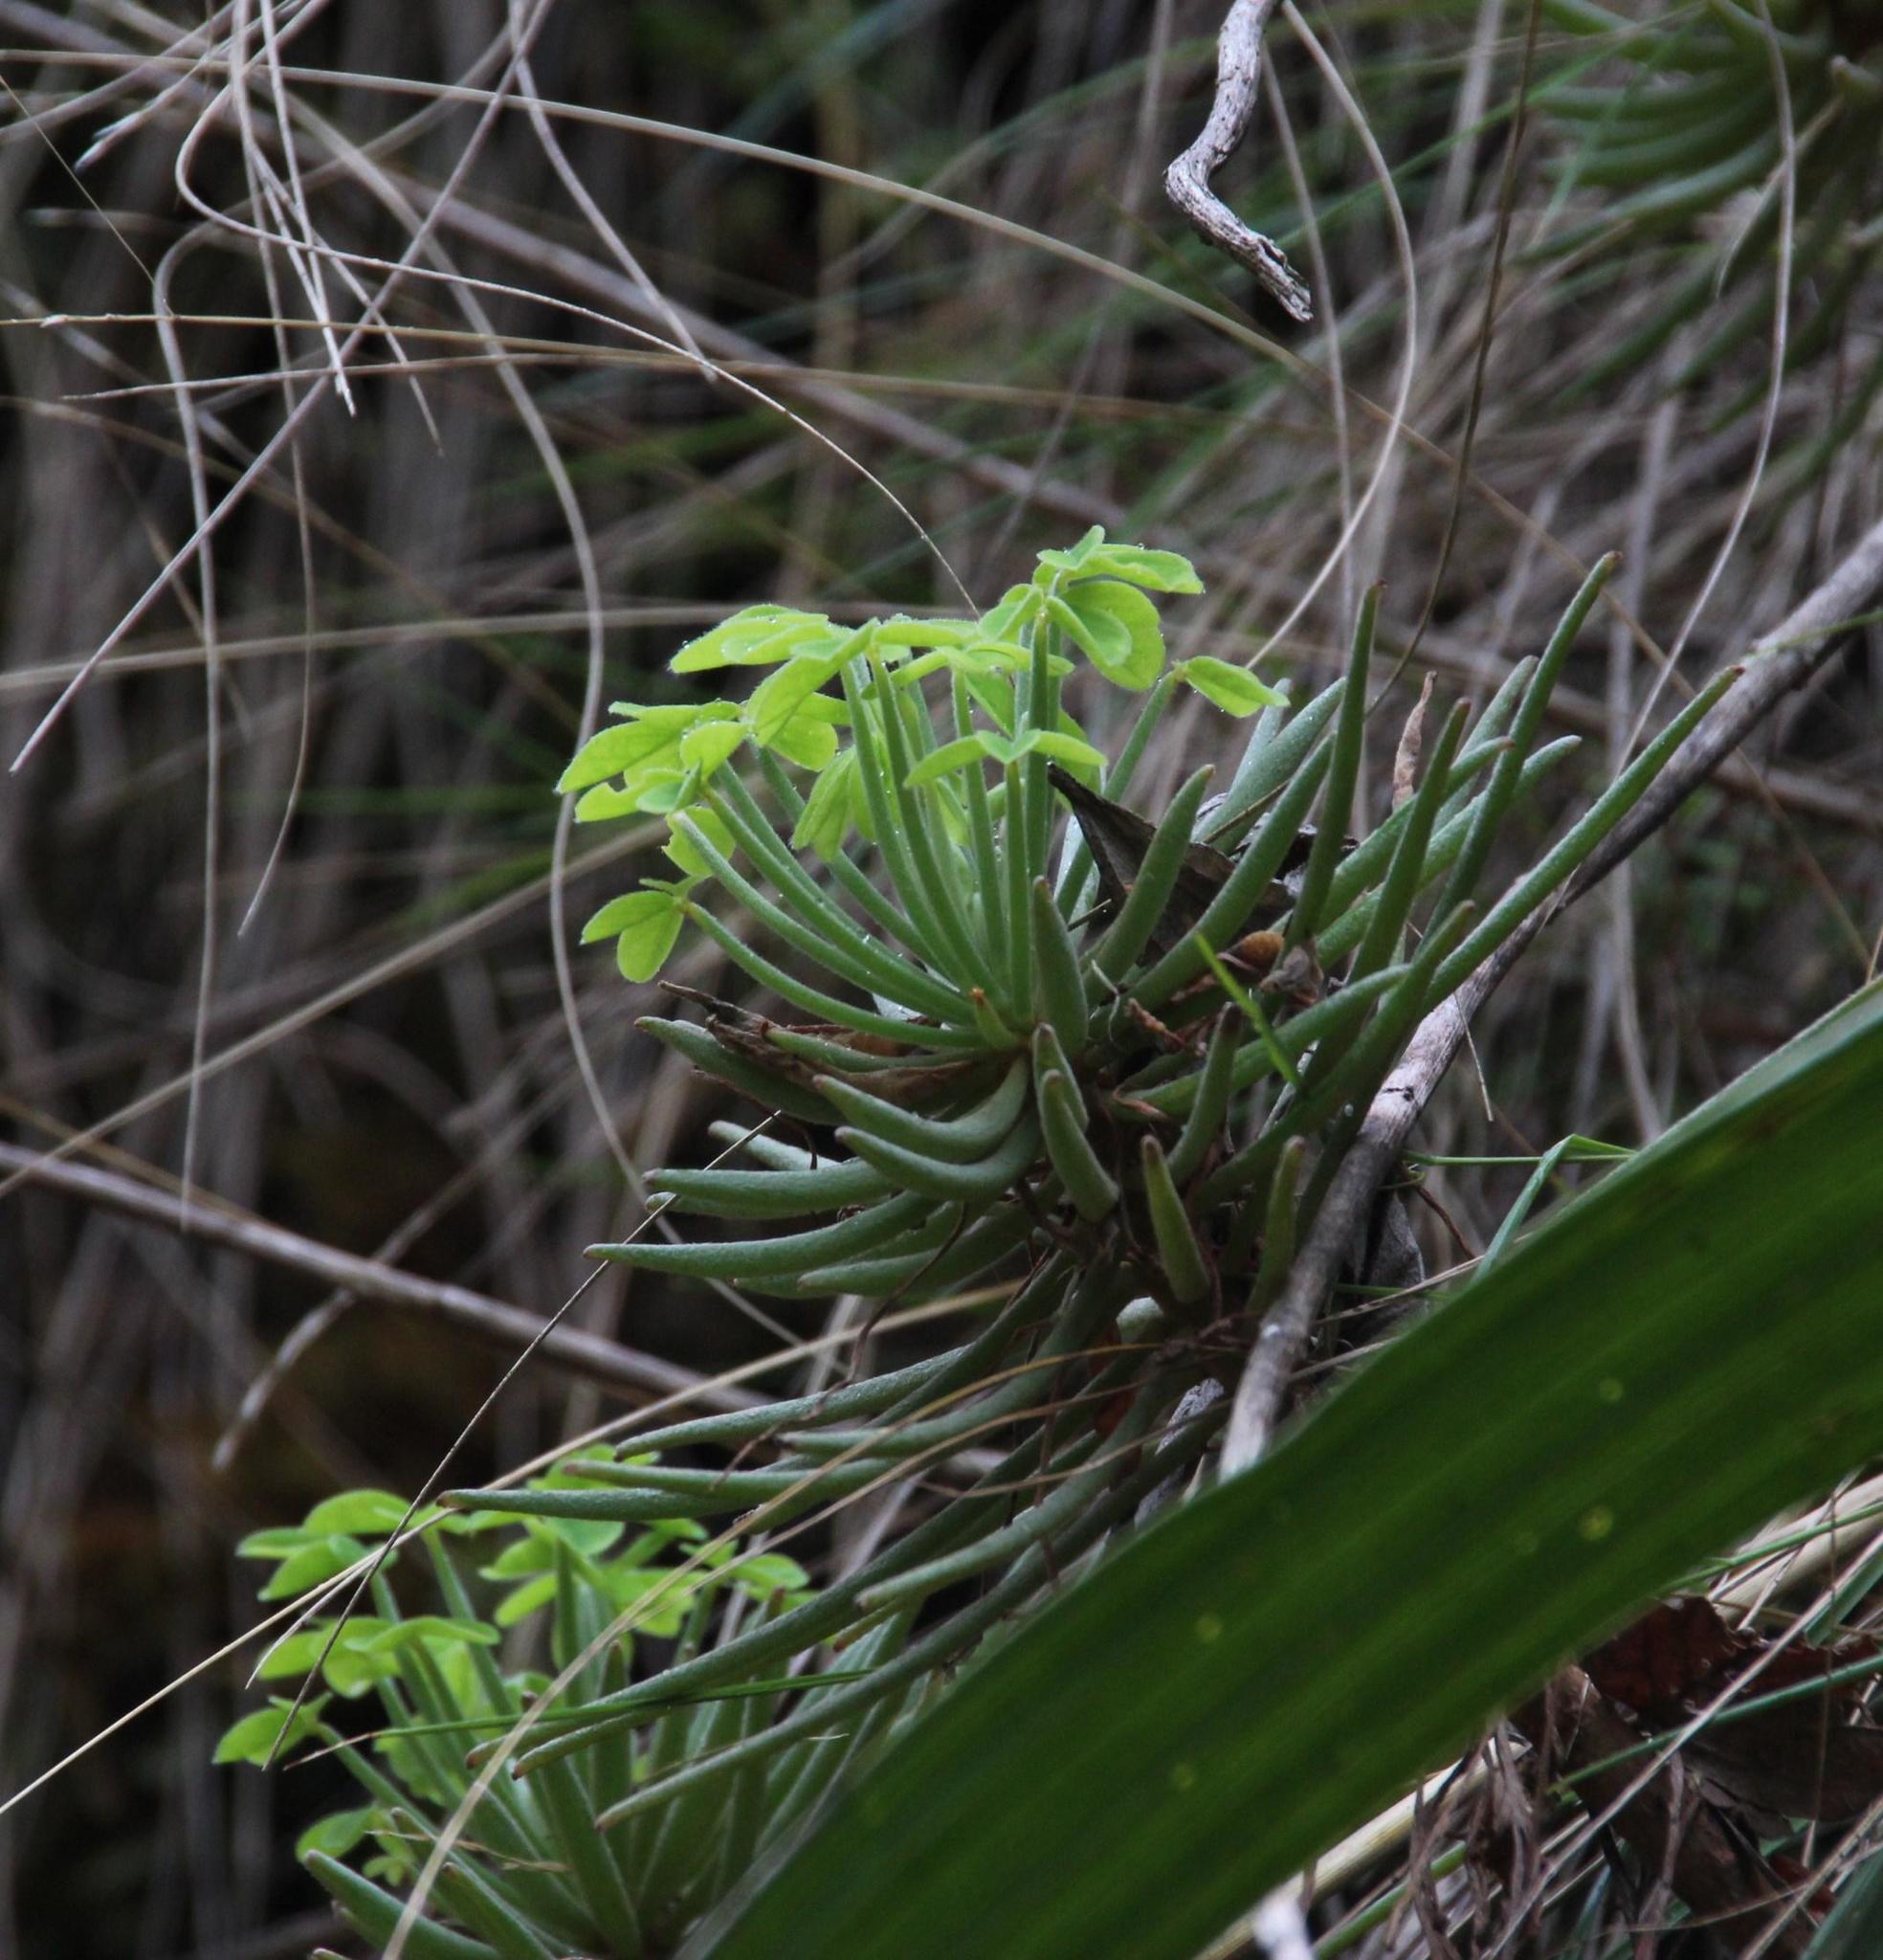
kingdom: Plantae
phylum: Tracheophyta
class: Magnoliopsida
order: Oxalidales
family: Oxalidaceae
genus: Oxalis
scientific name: Oxalis ptychoclada
